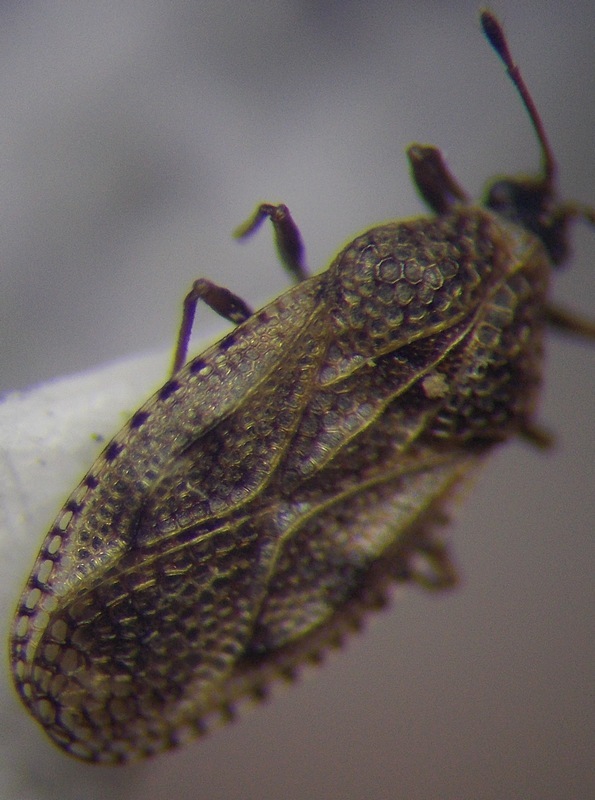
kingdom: Animalia
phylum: Arthropoda
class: Insecta
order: Hemiptera
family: Tingidae
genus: Dictyla
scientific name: Dictyla subdola
